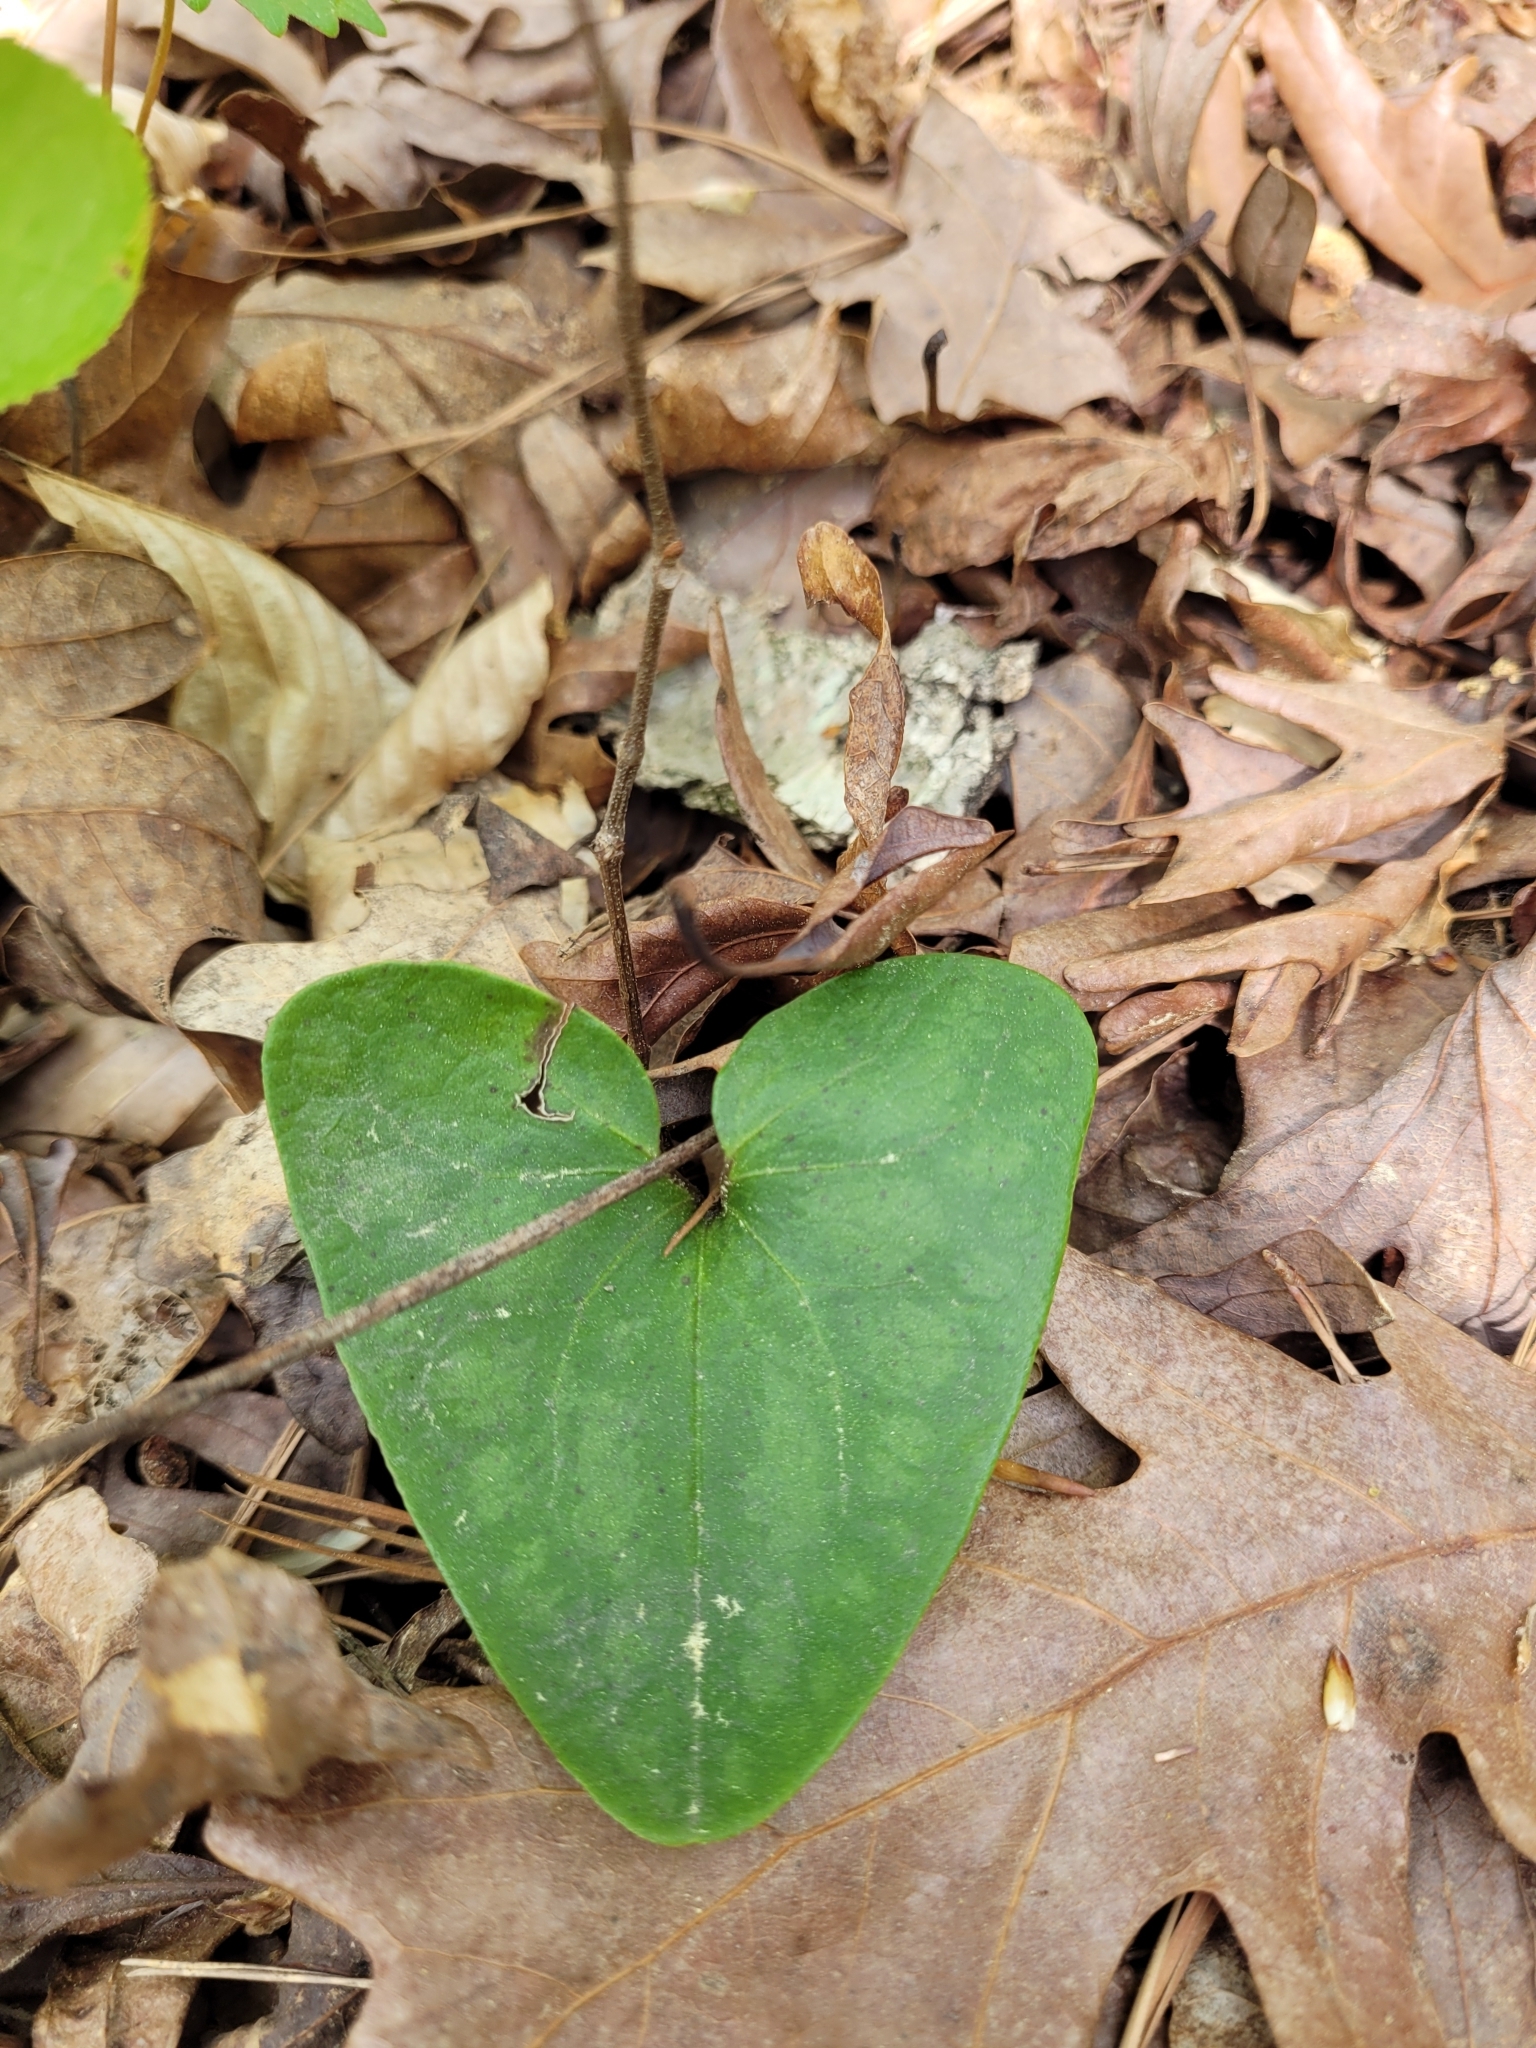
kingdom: Plantae
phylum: Tracheophyta
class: Magnoliopsida
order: Piperales
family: Aristolochiaceae
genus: Hexastylis
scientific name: Hexastylis arifolia
